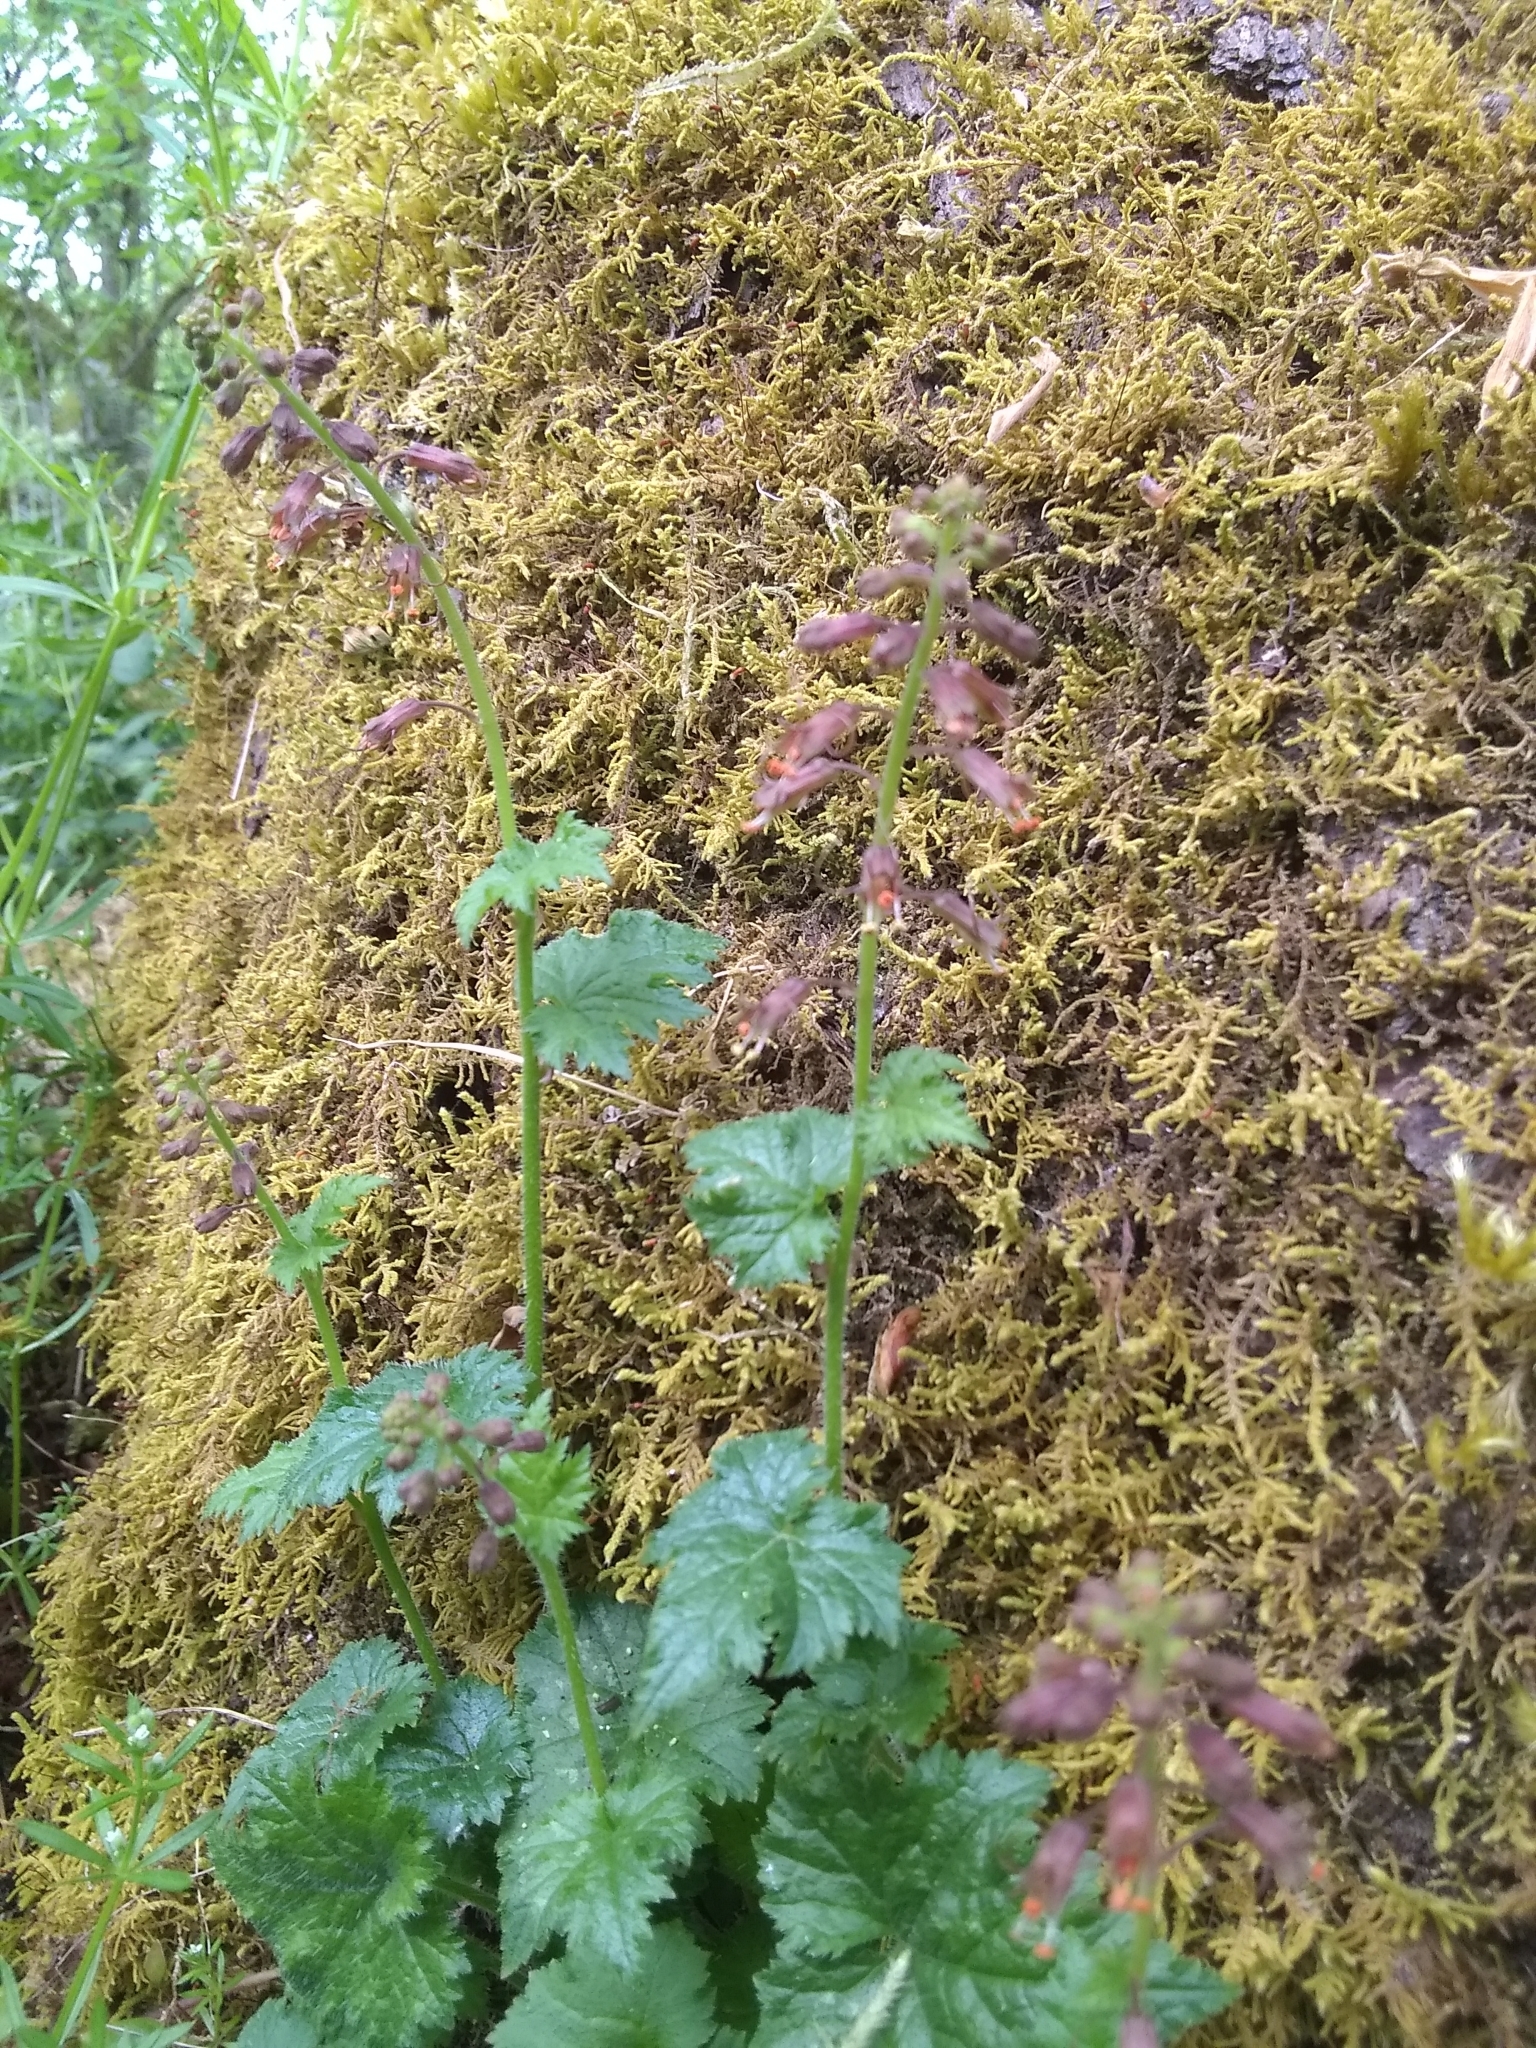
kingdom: Plantae
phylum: Tracheophyta
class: Magnoliopsida
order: Saxifragales
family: Saxifragaceae
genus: Tolmiea
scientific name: Tolmiea menziesii
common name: Pick-a-back-plant
